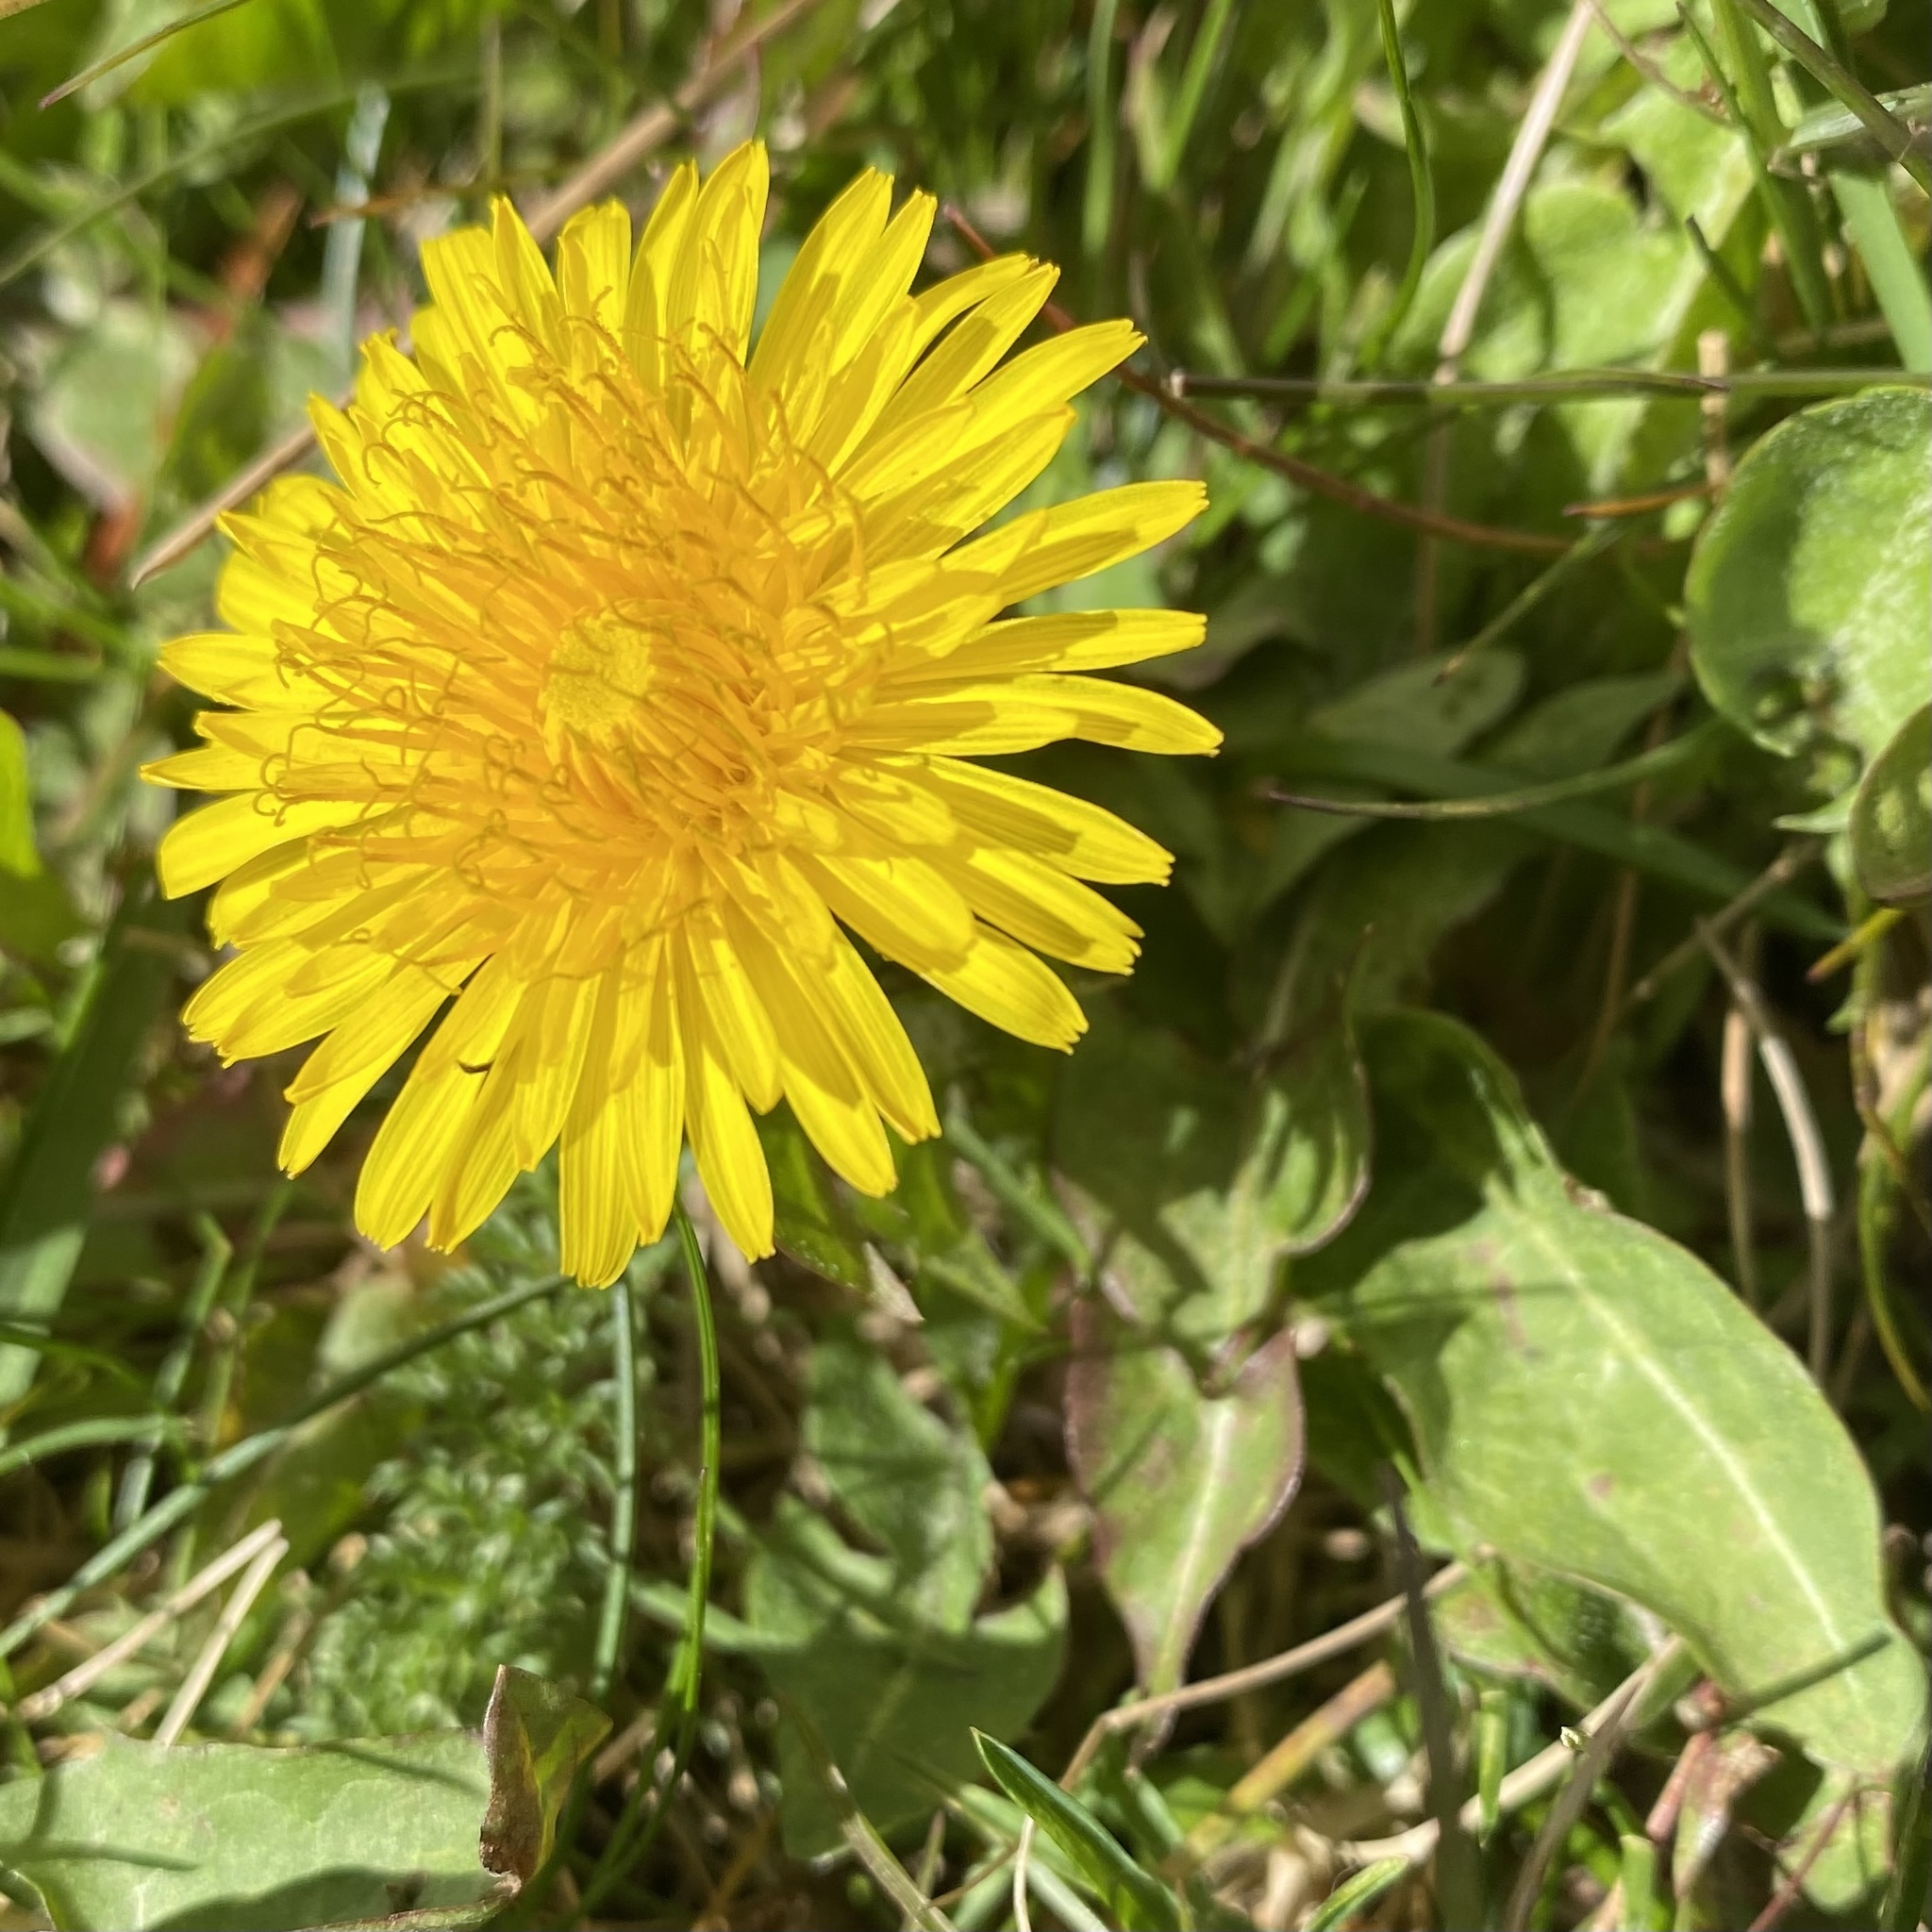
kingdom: Plantae
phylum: Tracheophyta
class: Magnoliopsida
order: Asterales
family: Asteraceae
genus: Taraxacum
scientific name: Taraxacum officinale
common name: Common dandelion
